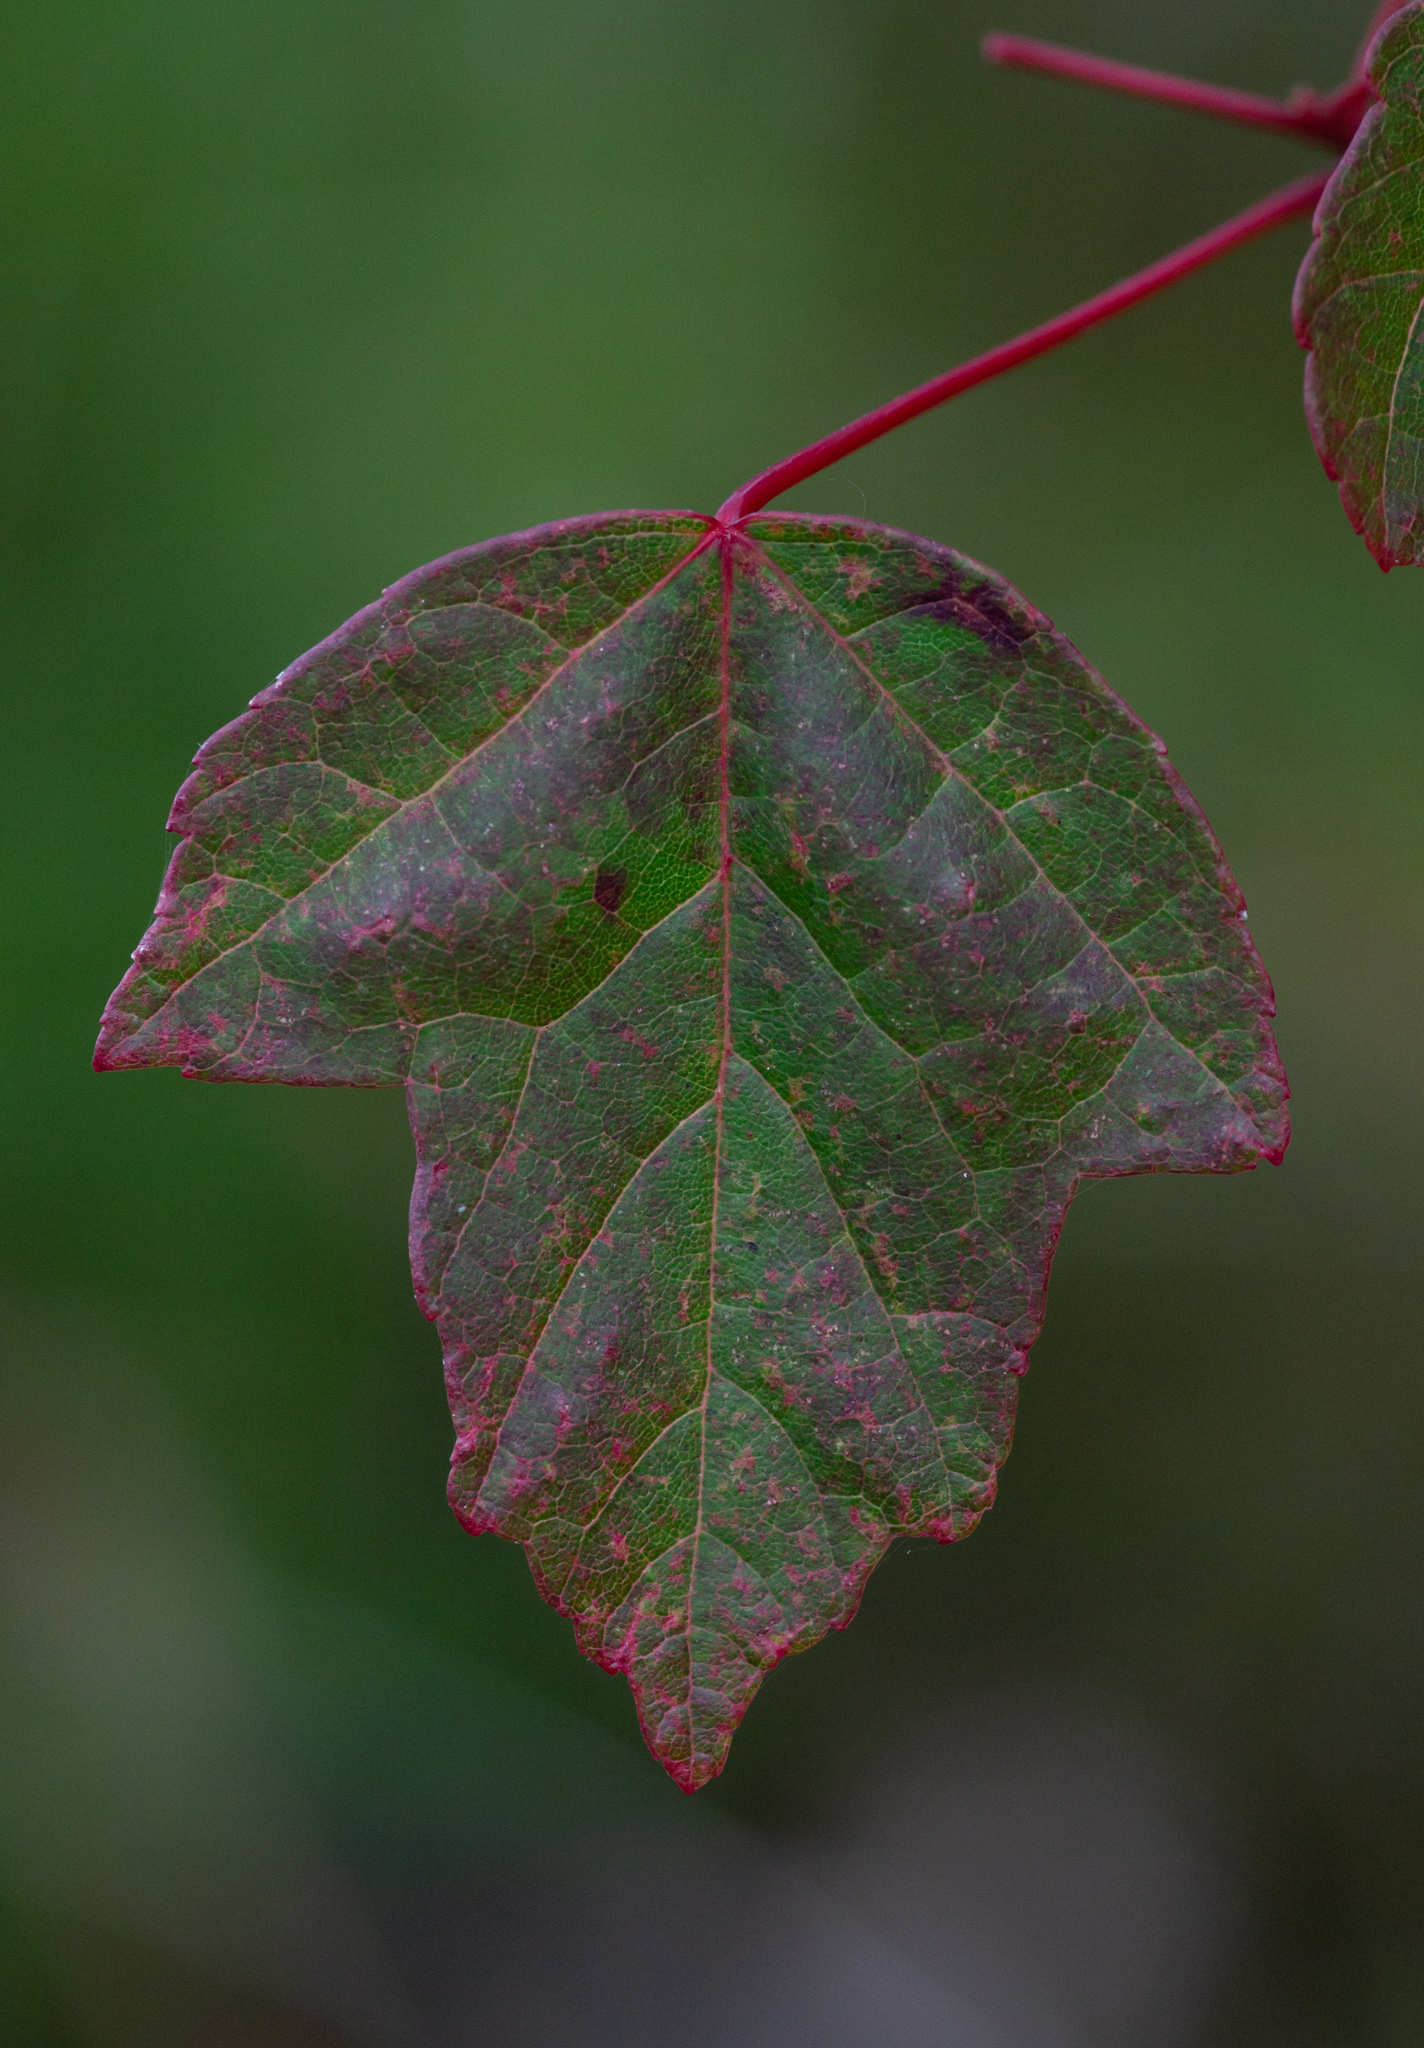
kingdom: Plantae
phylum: Tracheophyta
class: Magnoliopsida
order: Sapindales
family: Sapindaceae
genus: Acer
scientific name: Acer rubrum
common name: Red maple
